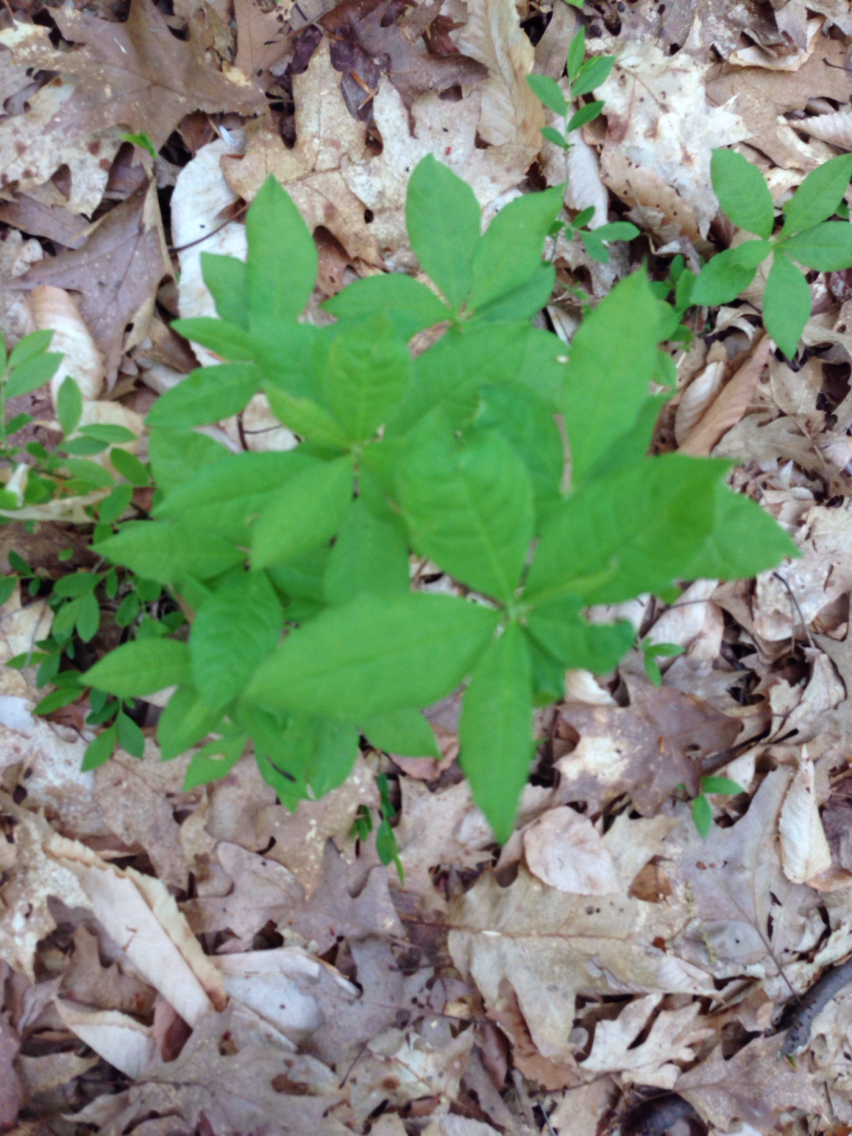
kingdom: Plantae
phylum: Tracheophyta
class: Magnoliopsida
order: Ericales
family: Ericaceae
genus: Rhododendron
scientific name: Rhododendron roseum
